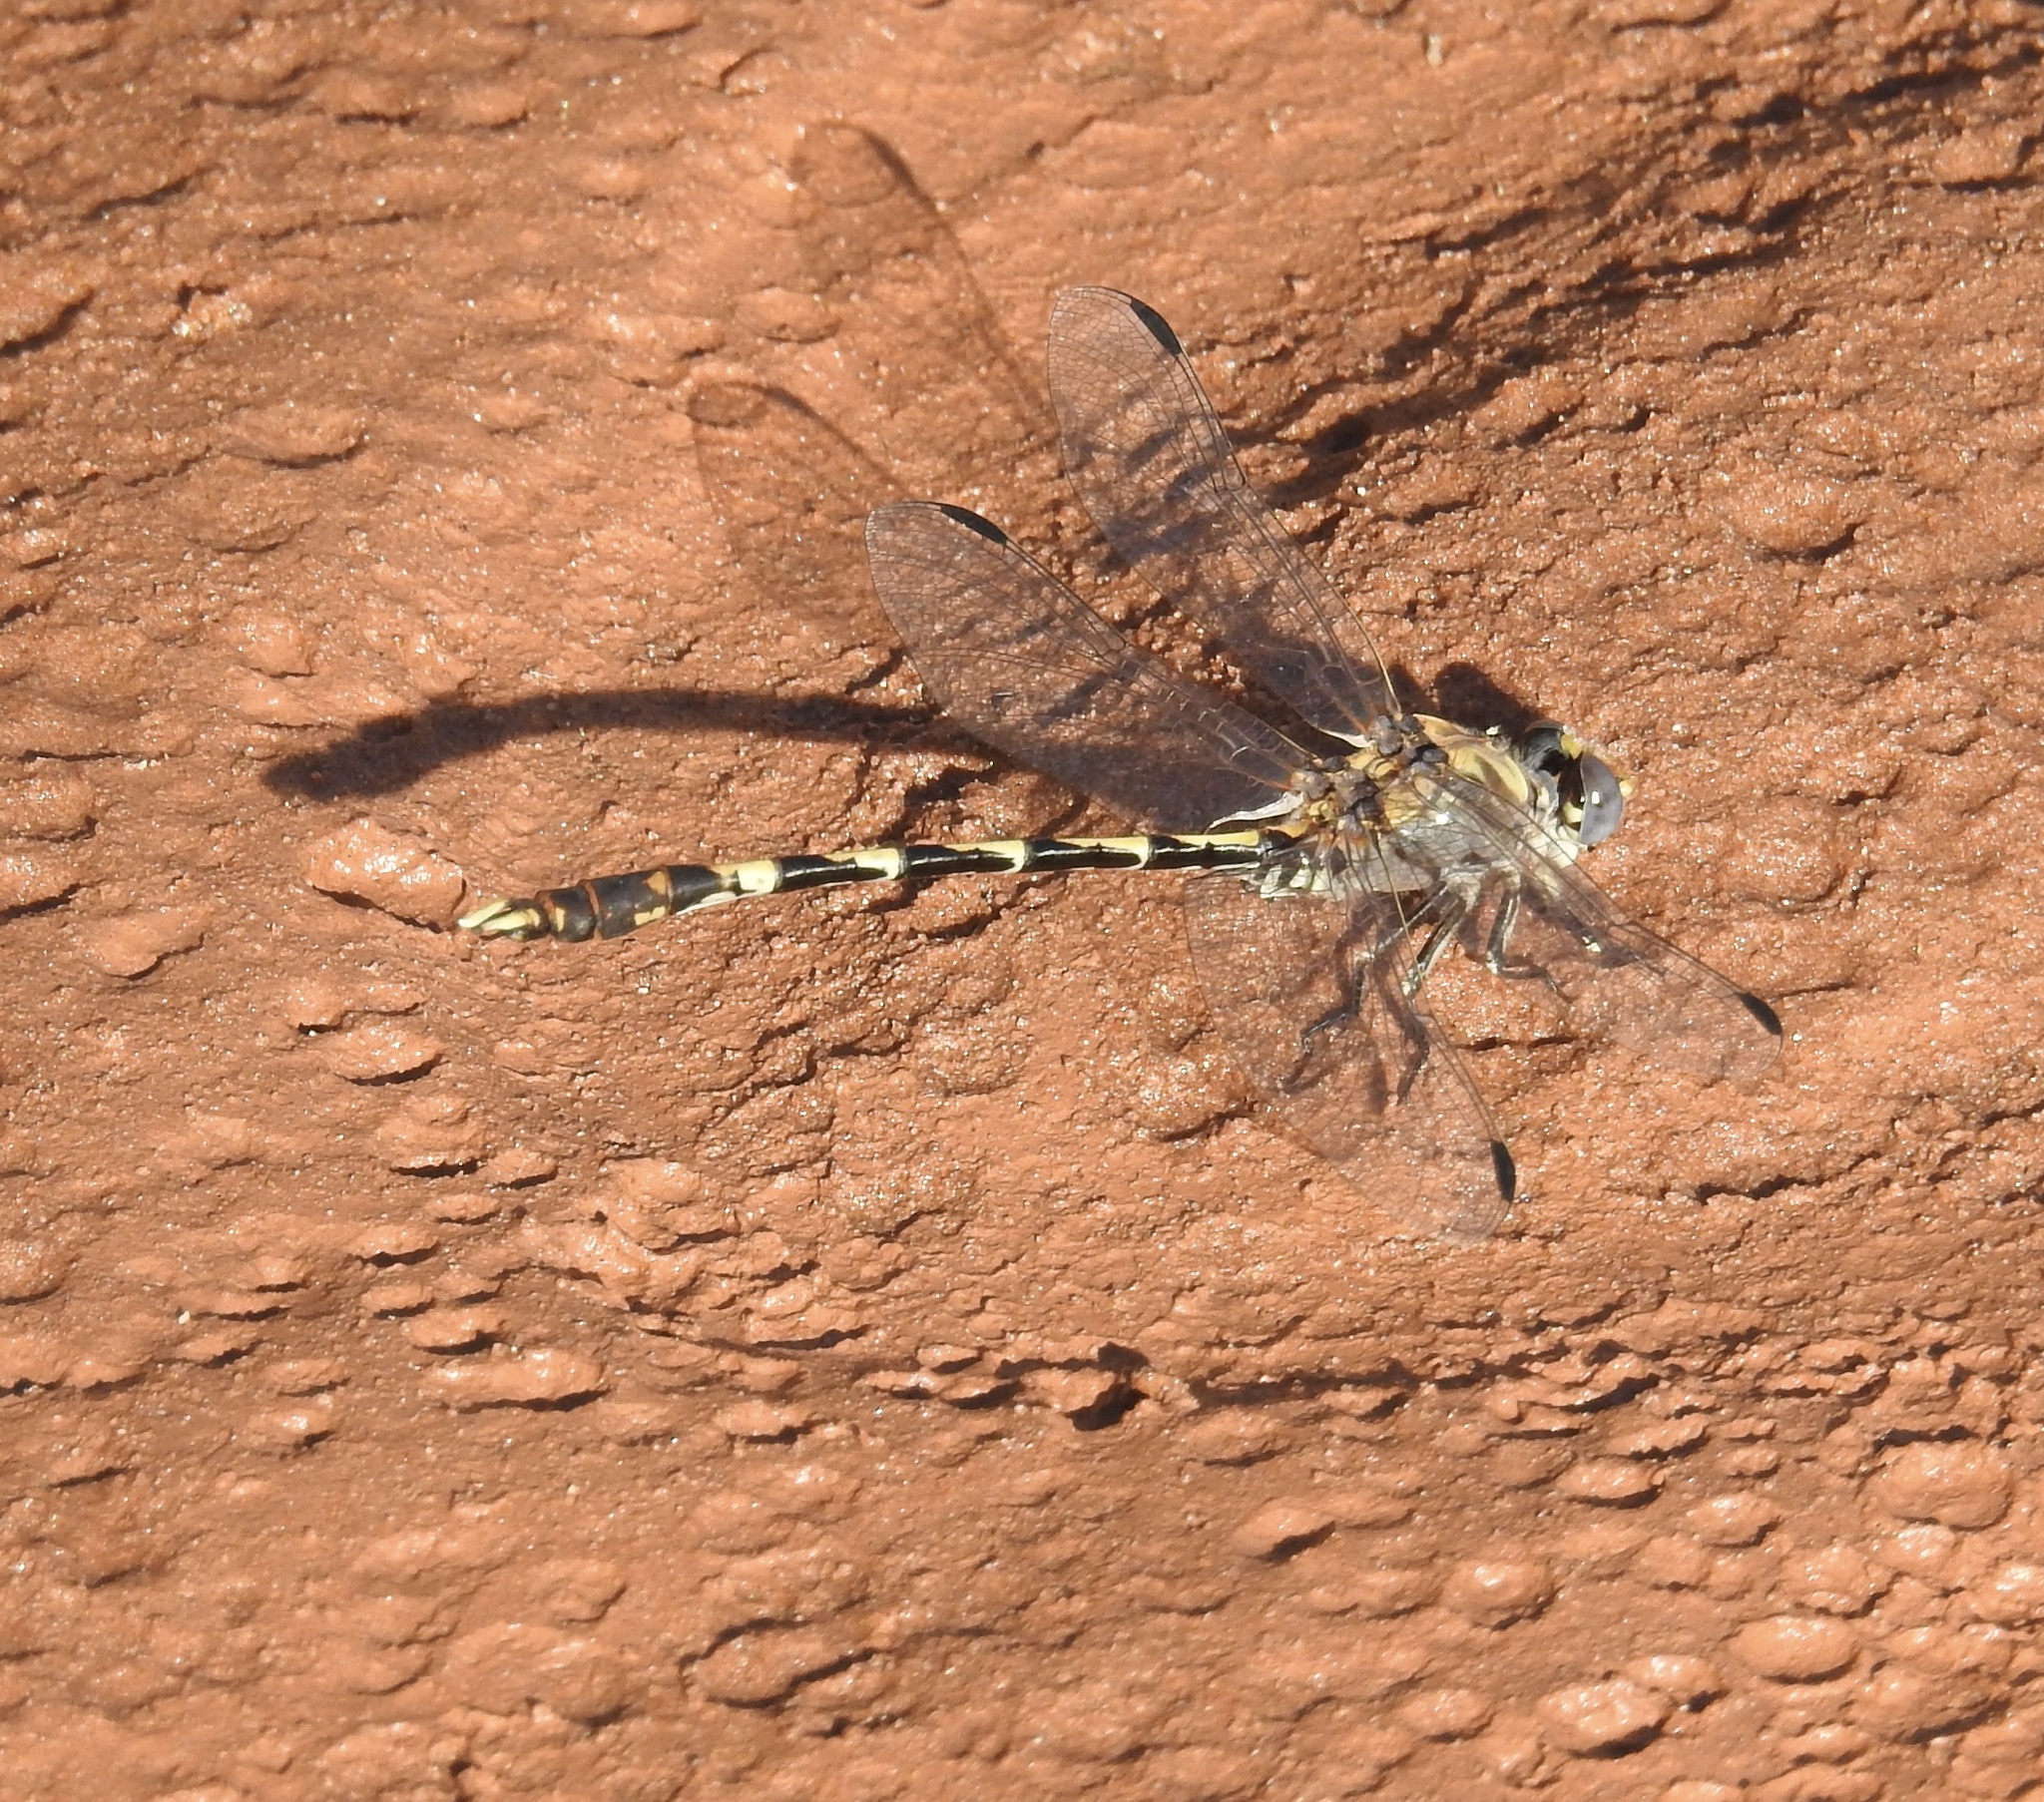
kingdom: Animalia
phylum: Arthropoda
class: Insecta
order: Odonata
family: Gomphidae
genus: Progomphus
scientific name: Progomphus borealis
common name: Gray sanddragon
